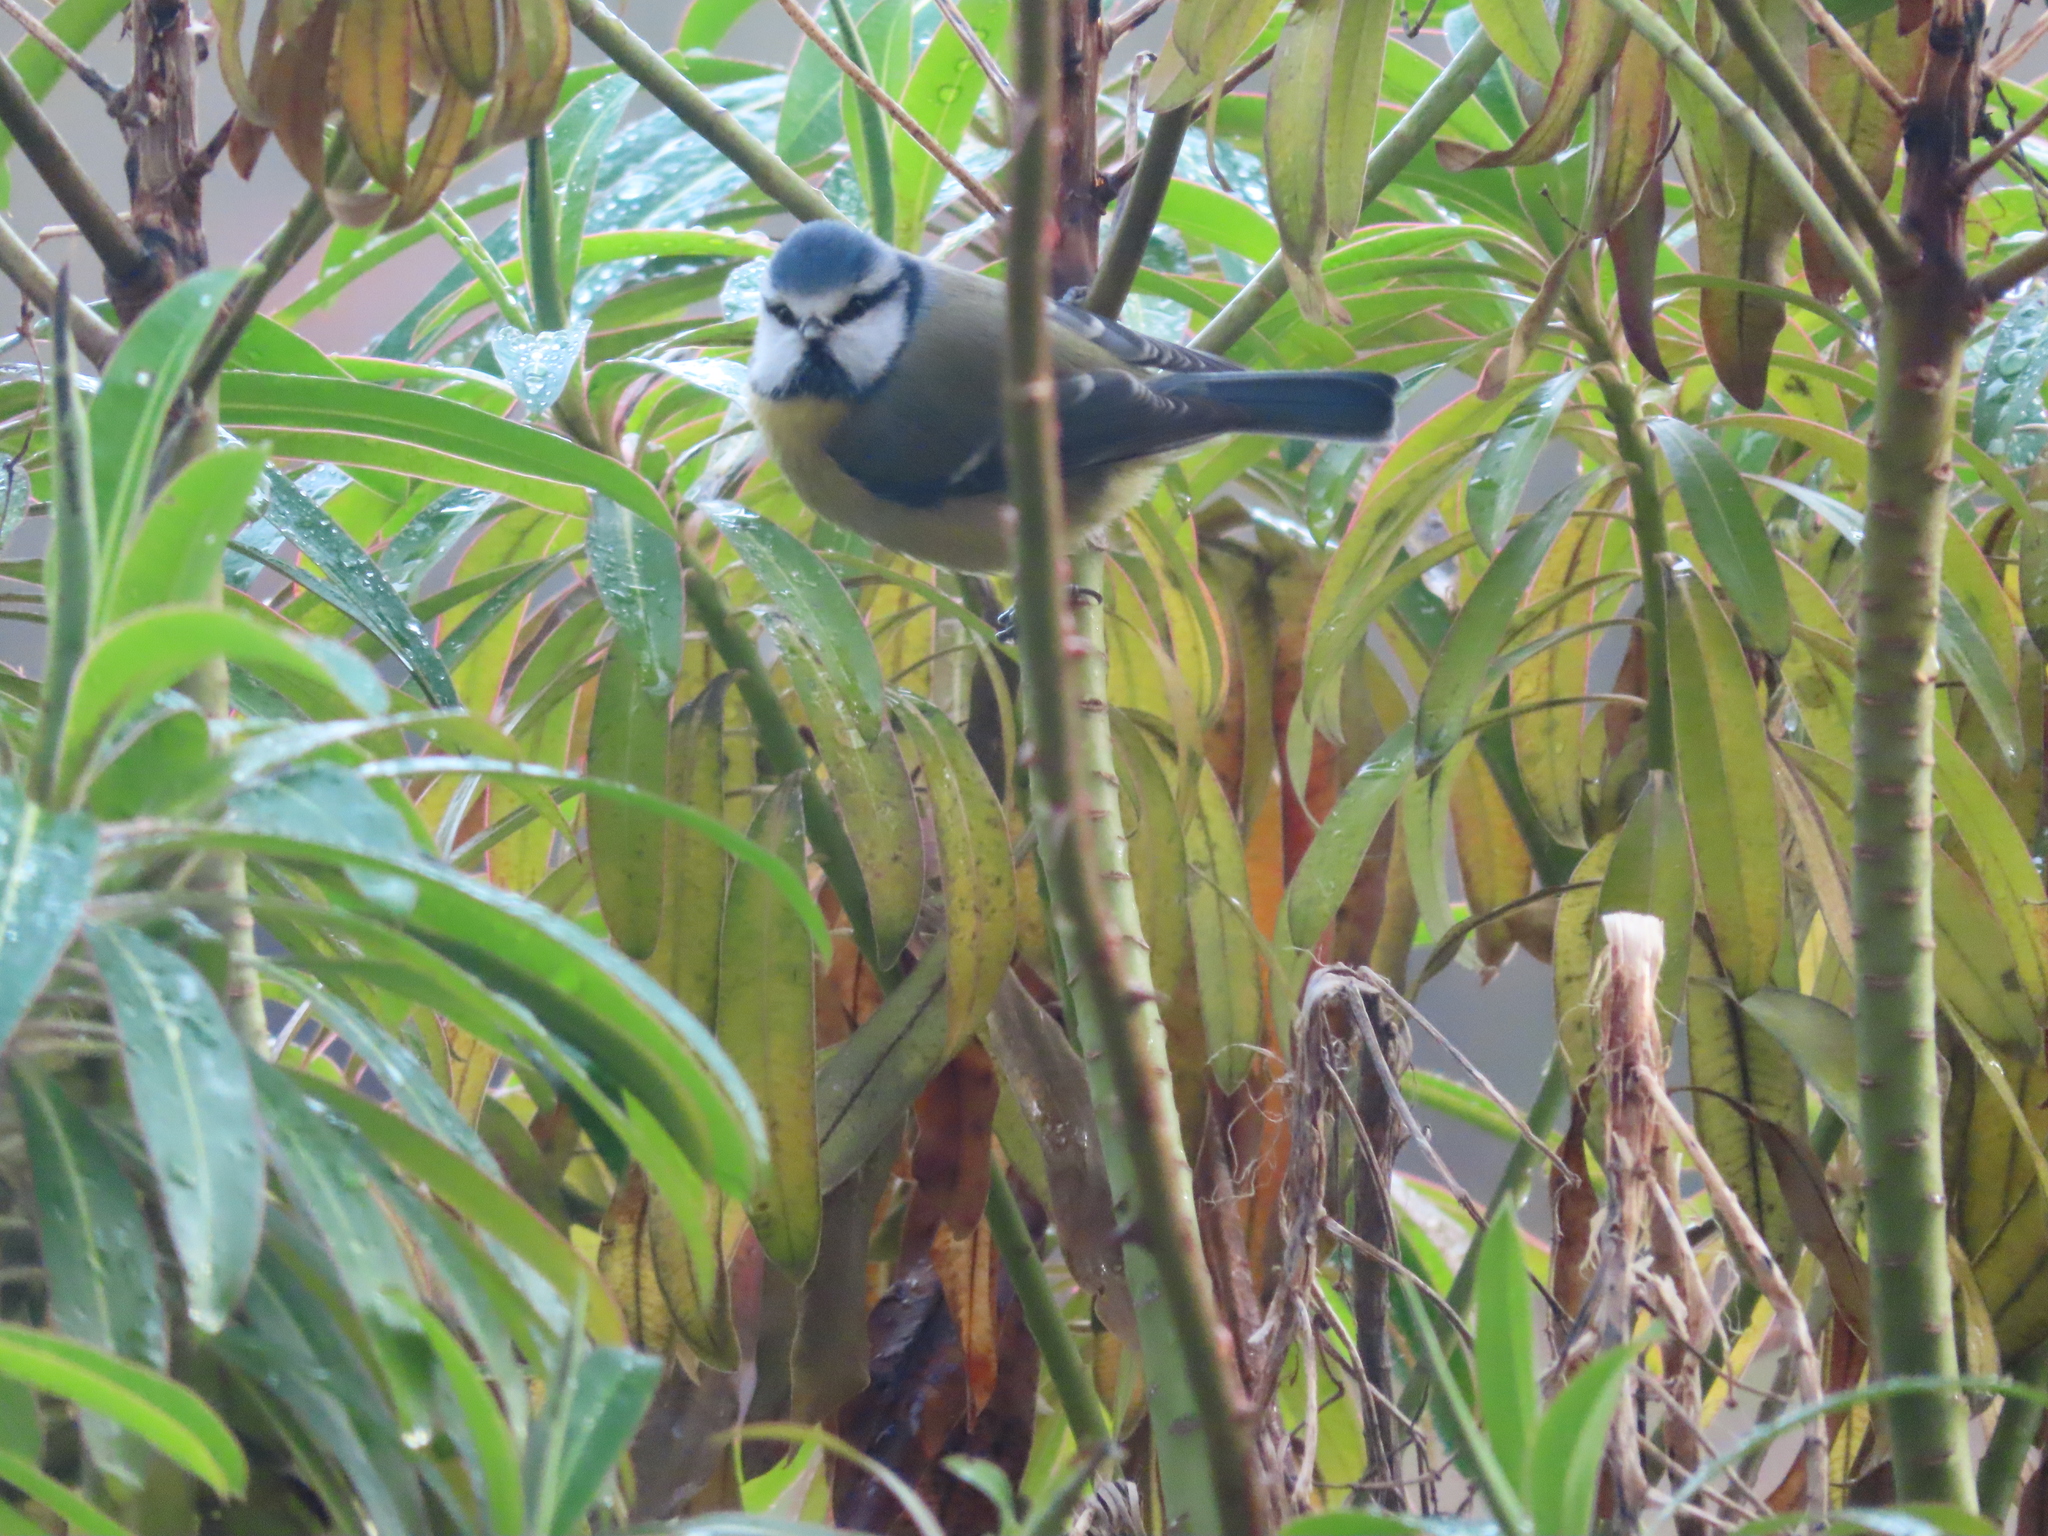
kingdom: Animalia
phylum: Chordata
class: Aves
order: Passeriformes
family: Paridae
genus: Cyanistes
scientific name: Cyanistes caeruleus
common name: Eurasian blue tit
